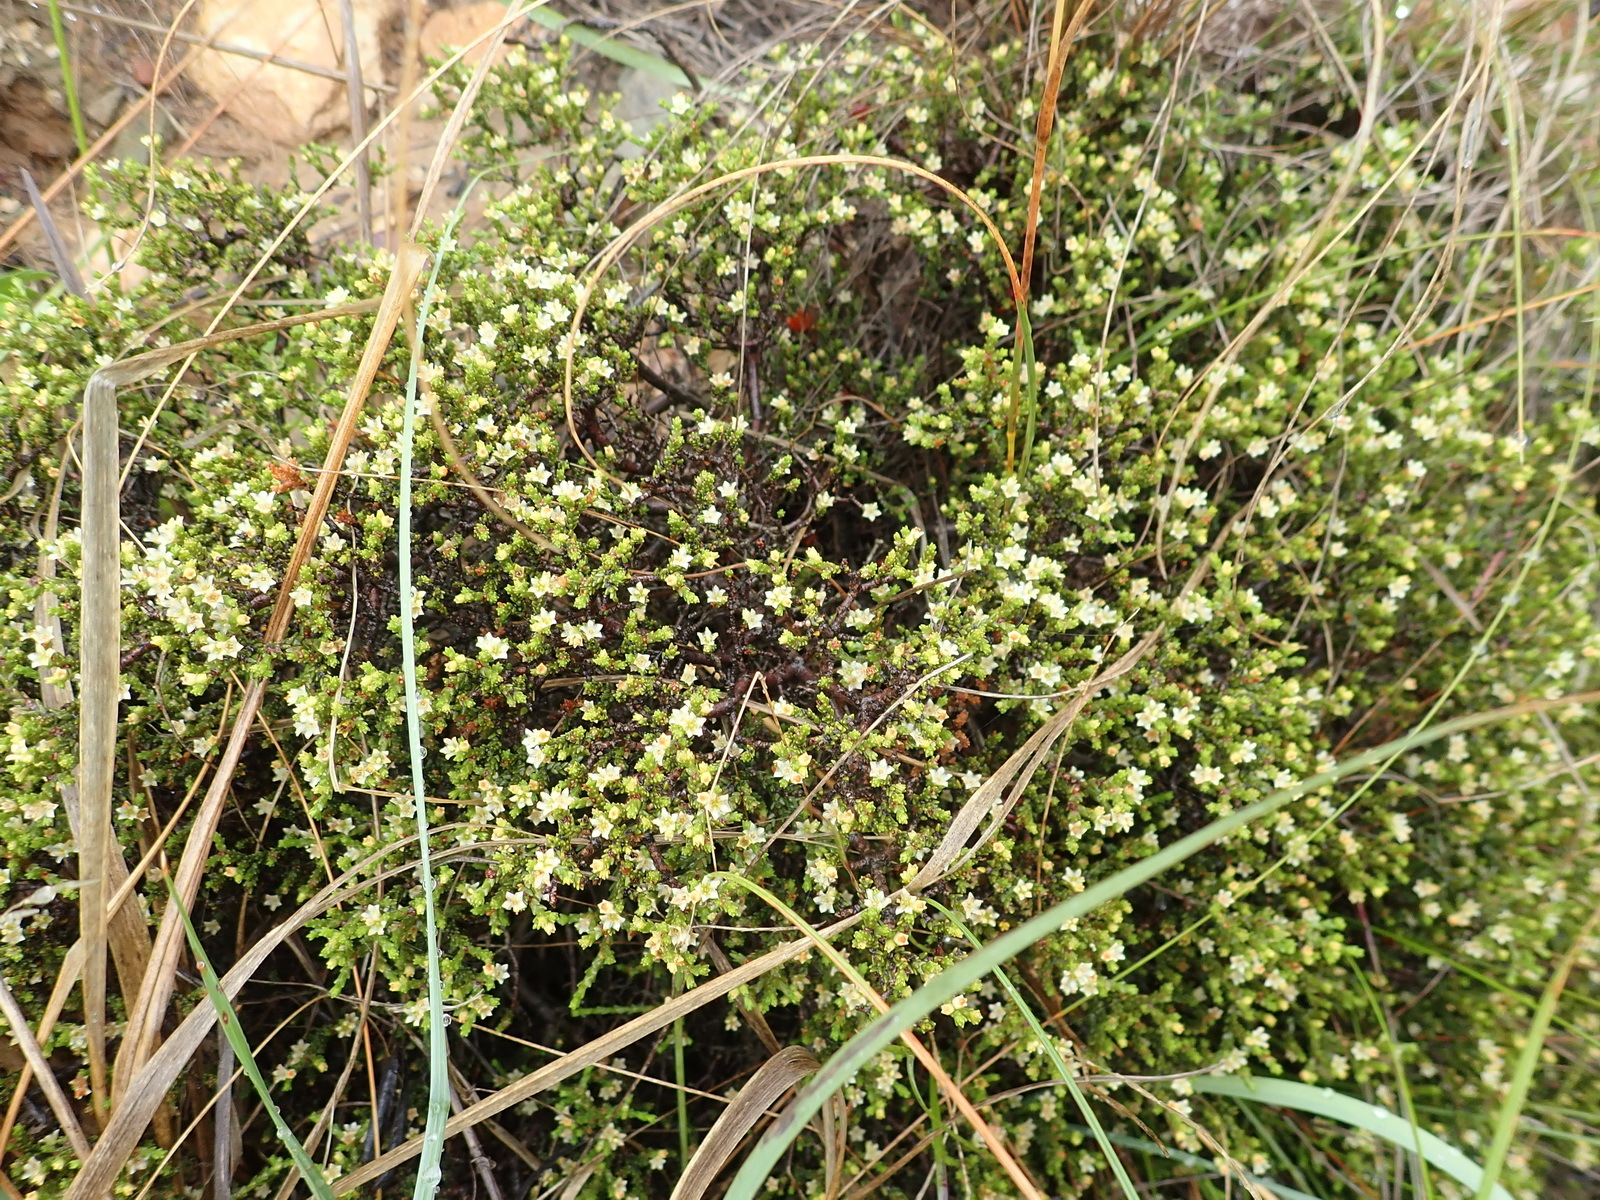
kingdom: Plantae
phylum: Tracheophyta
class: Magnoliopsida
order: Sapindales
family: Rutaceae
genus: Diosma
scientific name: Diosma apetala
